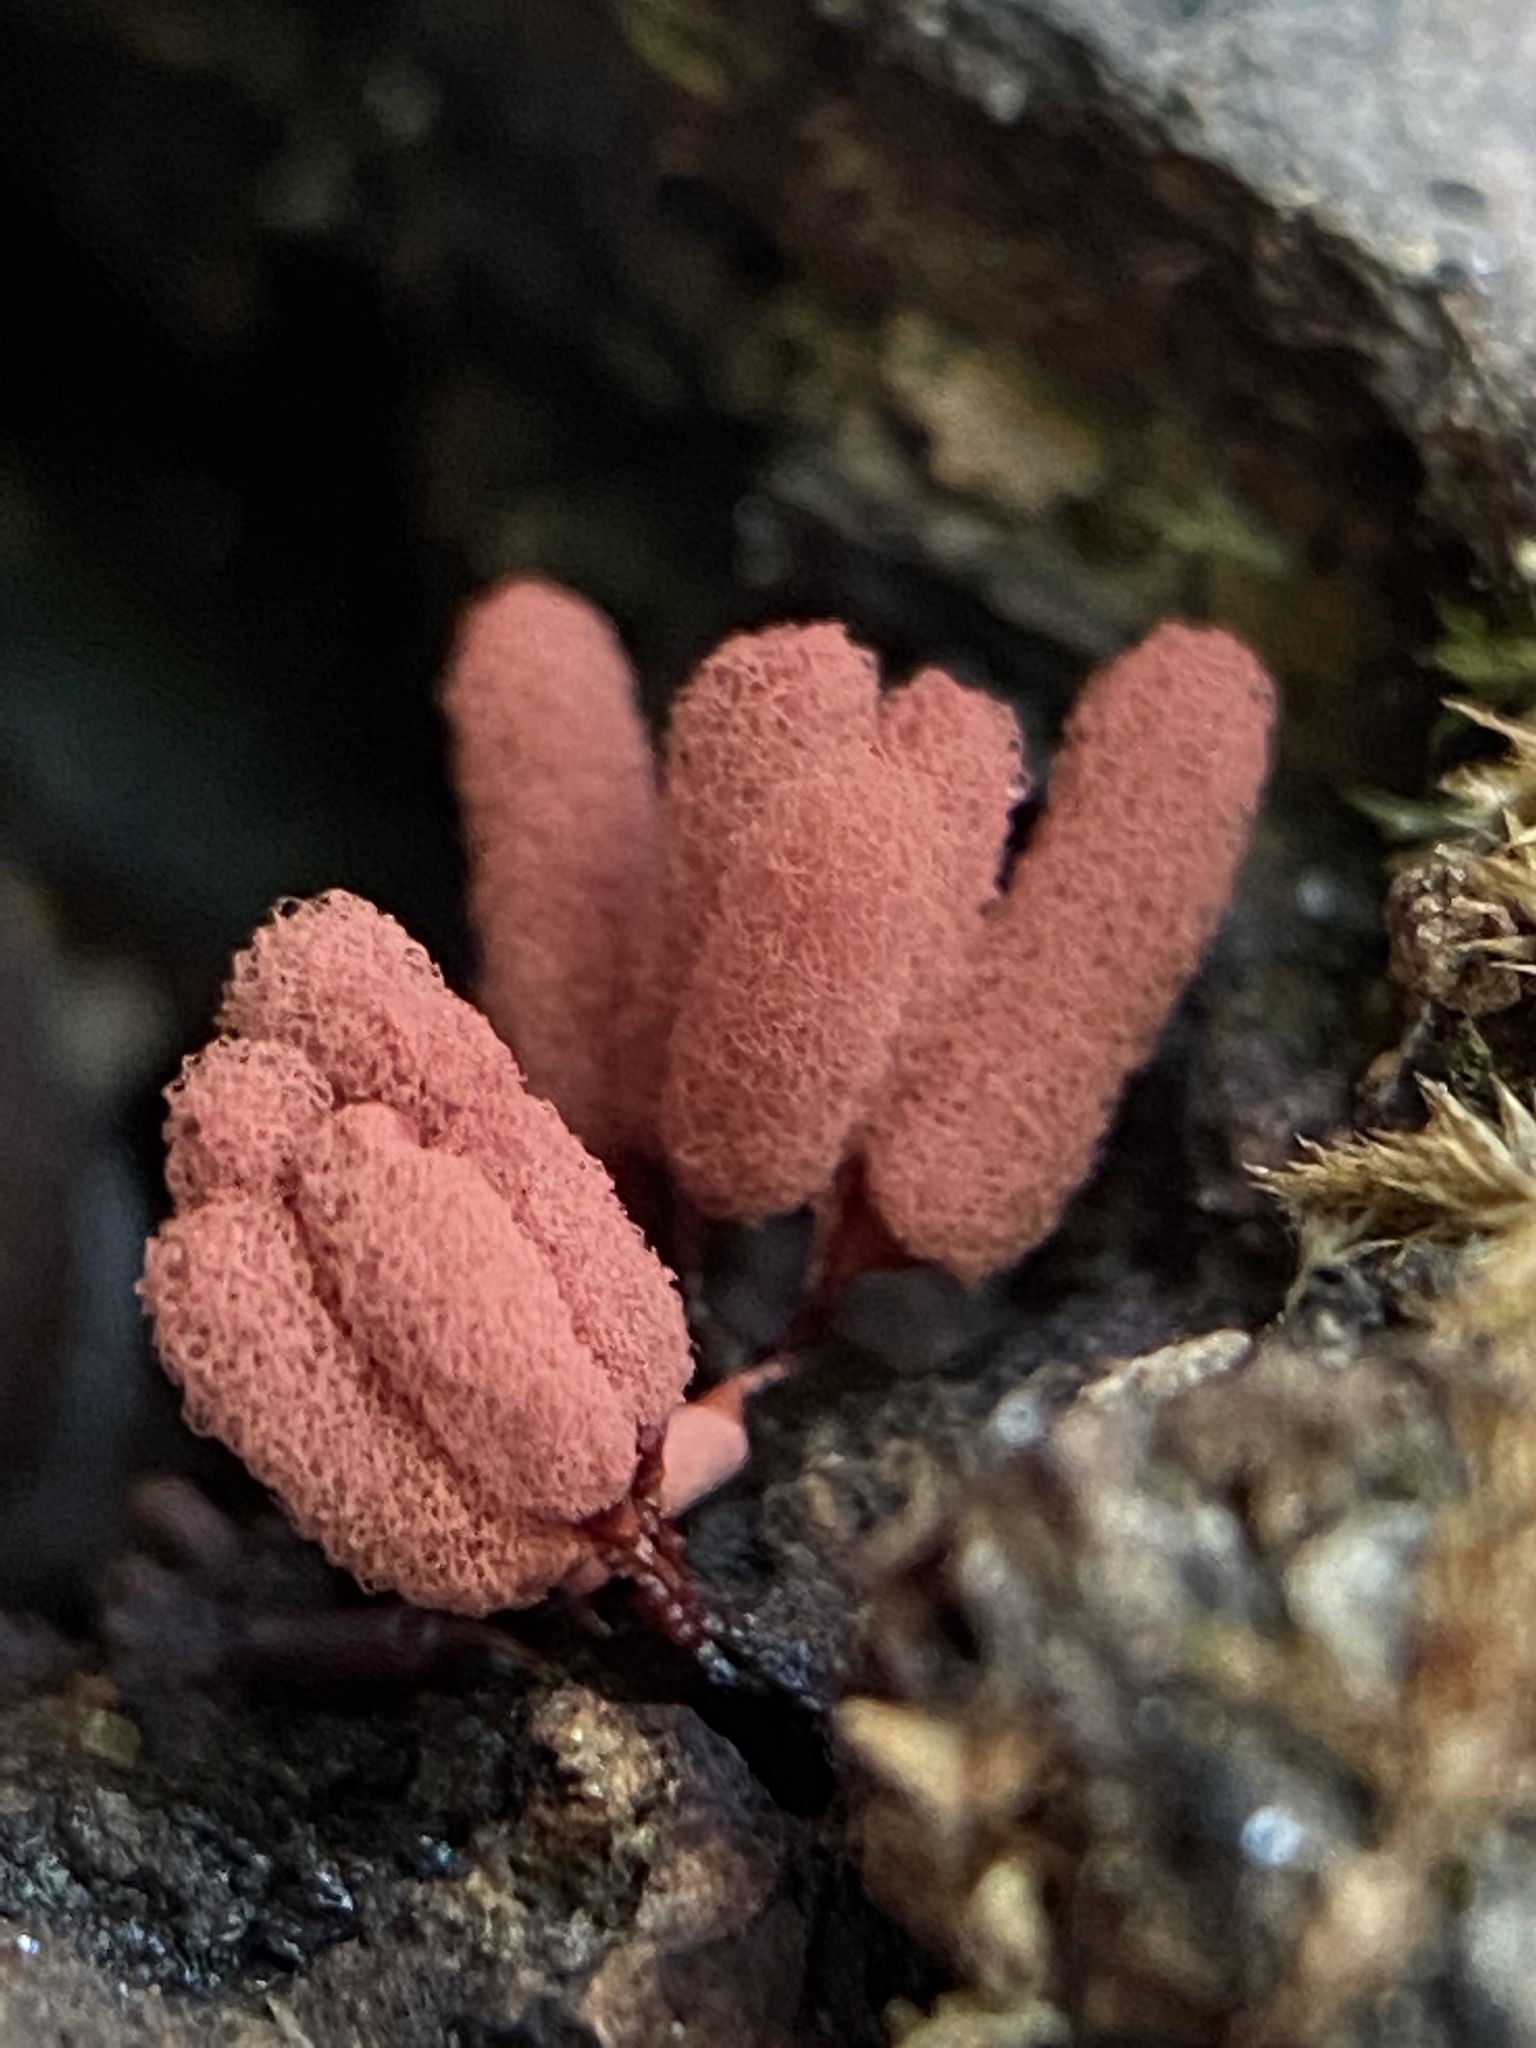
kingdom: Protozoa
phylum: Mycetozoa
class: Myxomycetes
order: Trichiales
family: Arcyriaceae
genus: Arcyria
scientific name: Arcyria denudata
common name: Carnival candy slime mold
